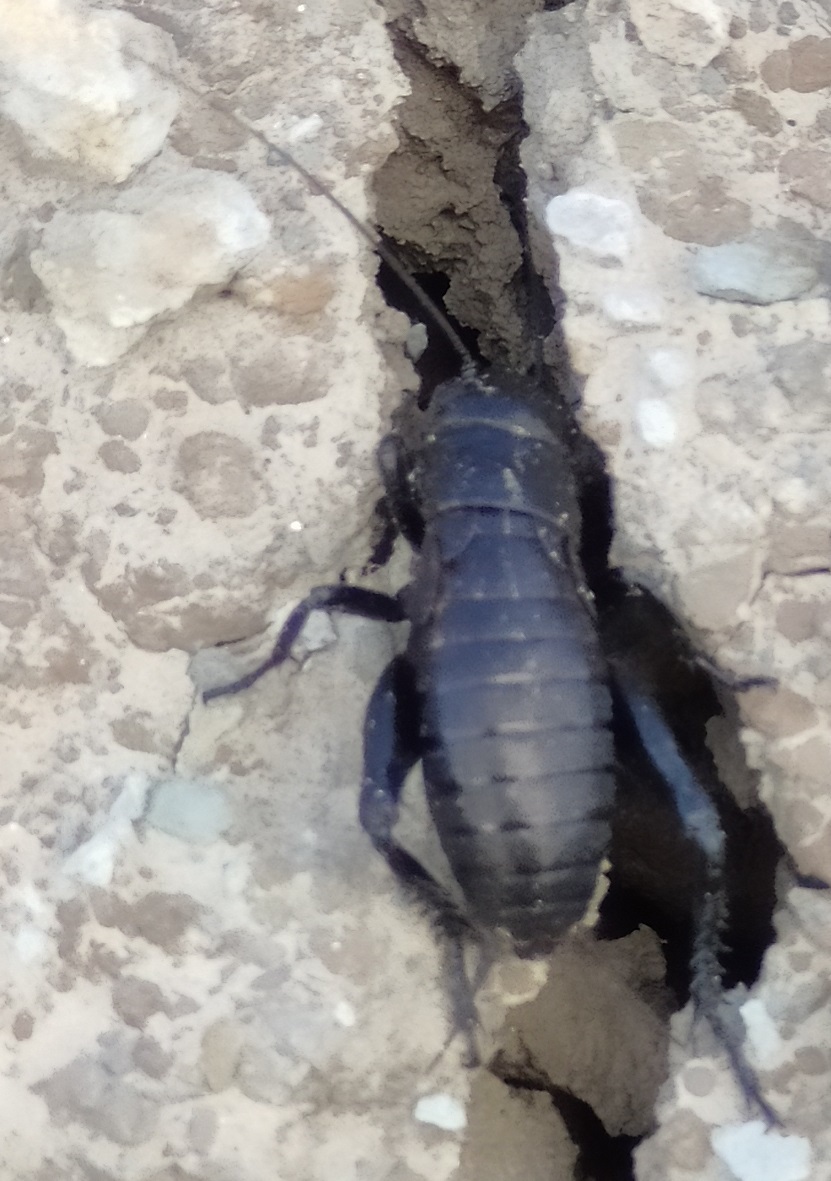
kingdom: Animalia
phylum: Arthropoda
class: Insecta
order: Orthoptera
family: Gryllidae
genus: Gryllus
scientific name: Gryllus bimaculatus
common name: Two-spotted cricket
